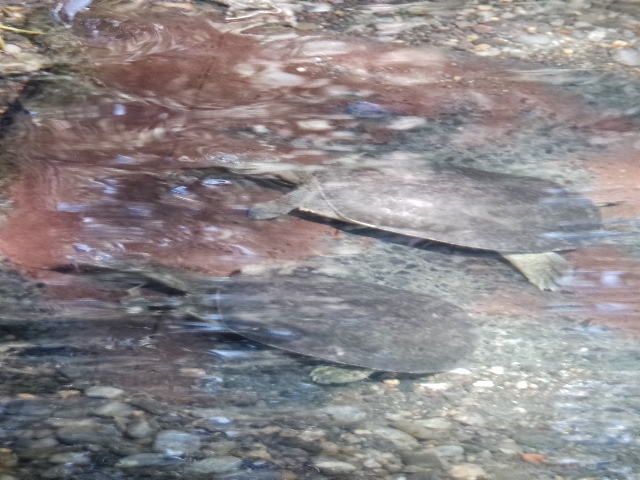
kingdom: Animalia
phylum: Chordata
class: Testudines
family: Trionychidae
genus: Apalone
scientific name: Apalone spinifera
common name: Spiny softshell turtle
